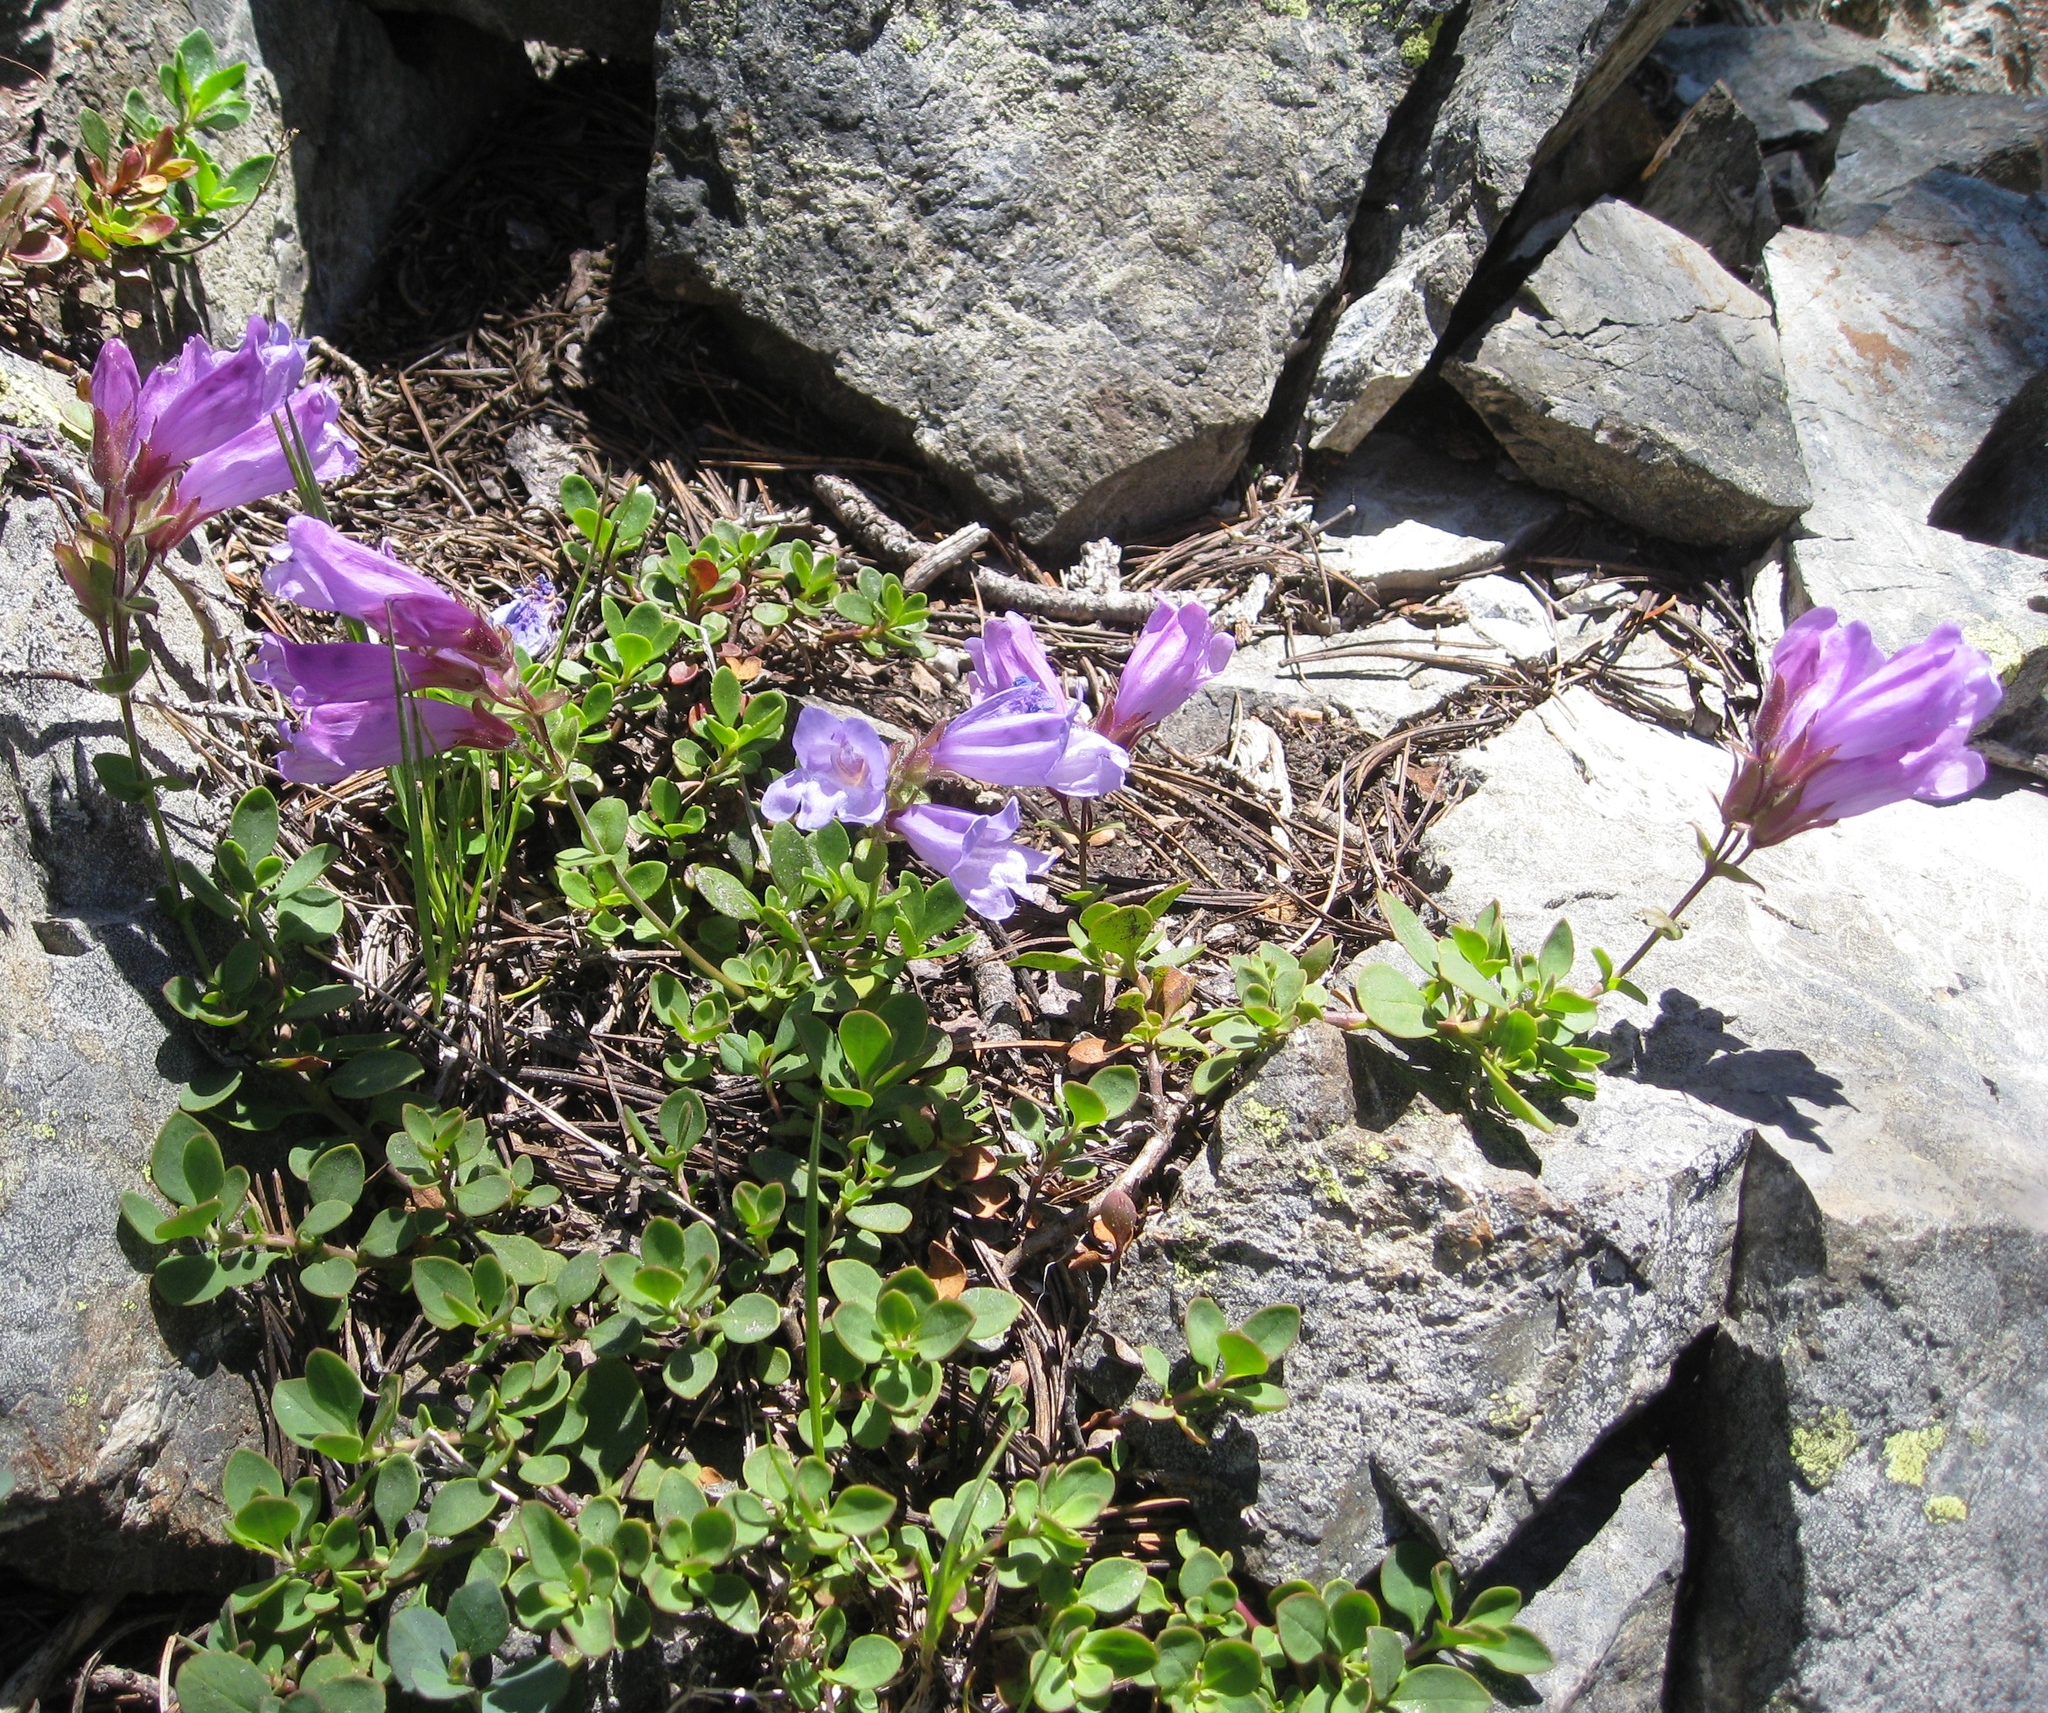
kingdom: Plantae
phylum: Tracheophyta
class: Magnoliopsida
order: Lamiales
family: Plantaginaceae
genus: Penstemon
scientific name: Penstemon davidsonii
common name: Davidson's penstemon
